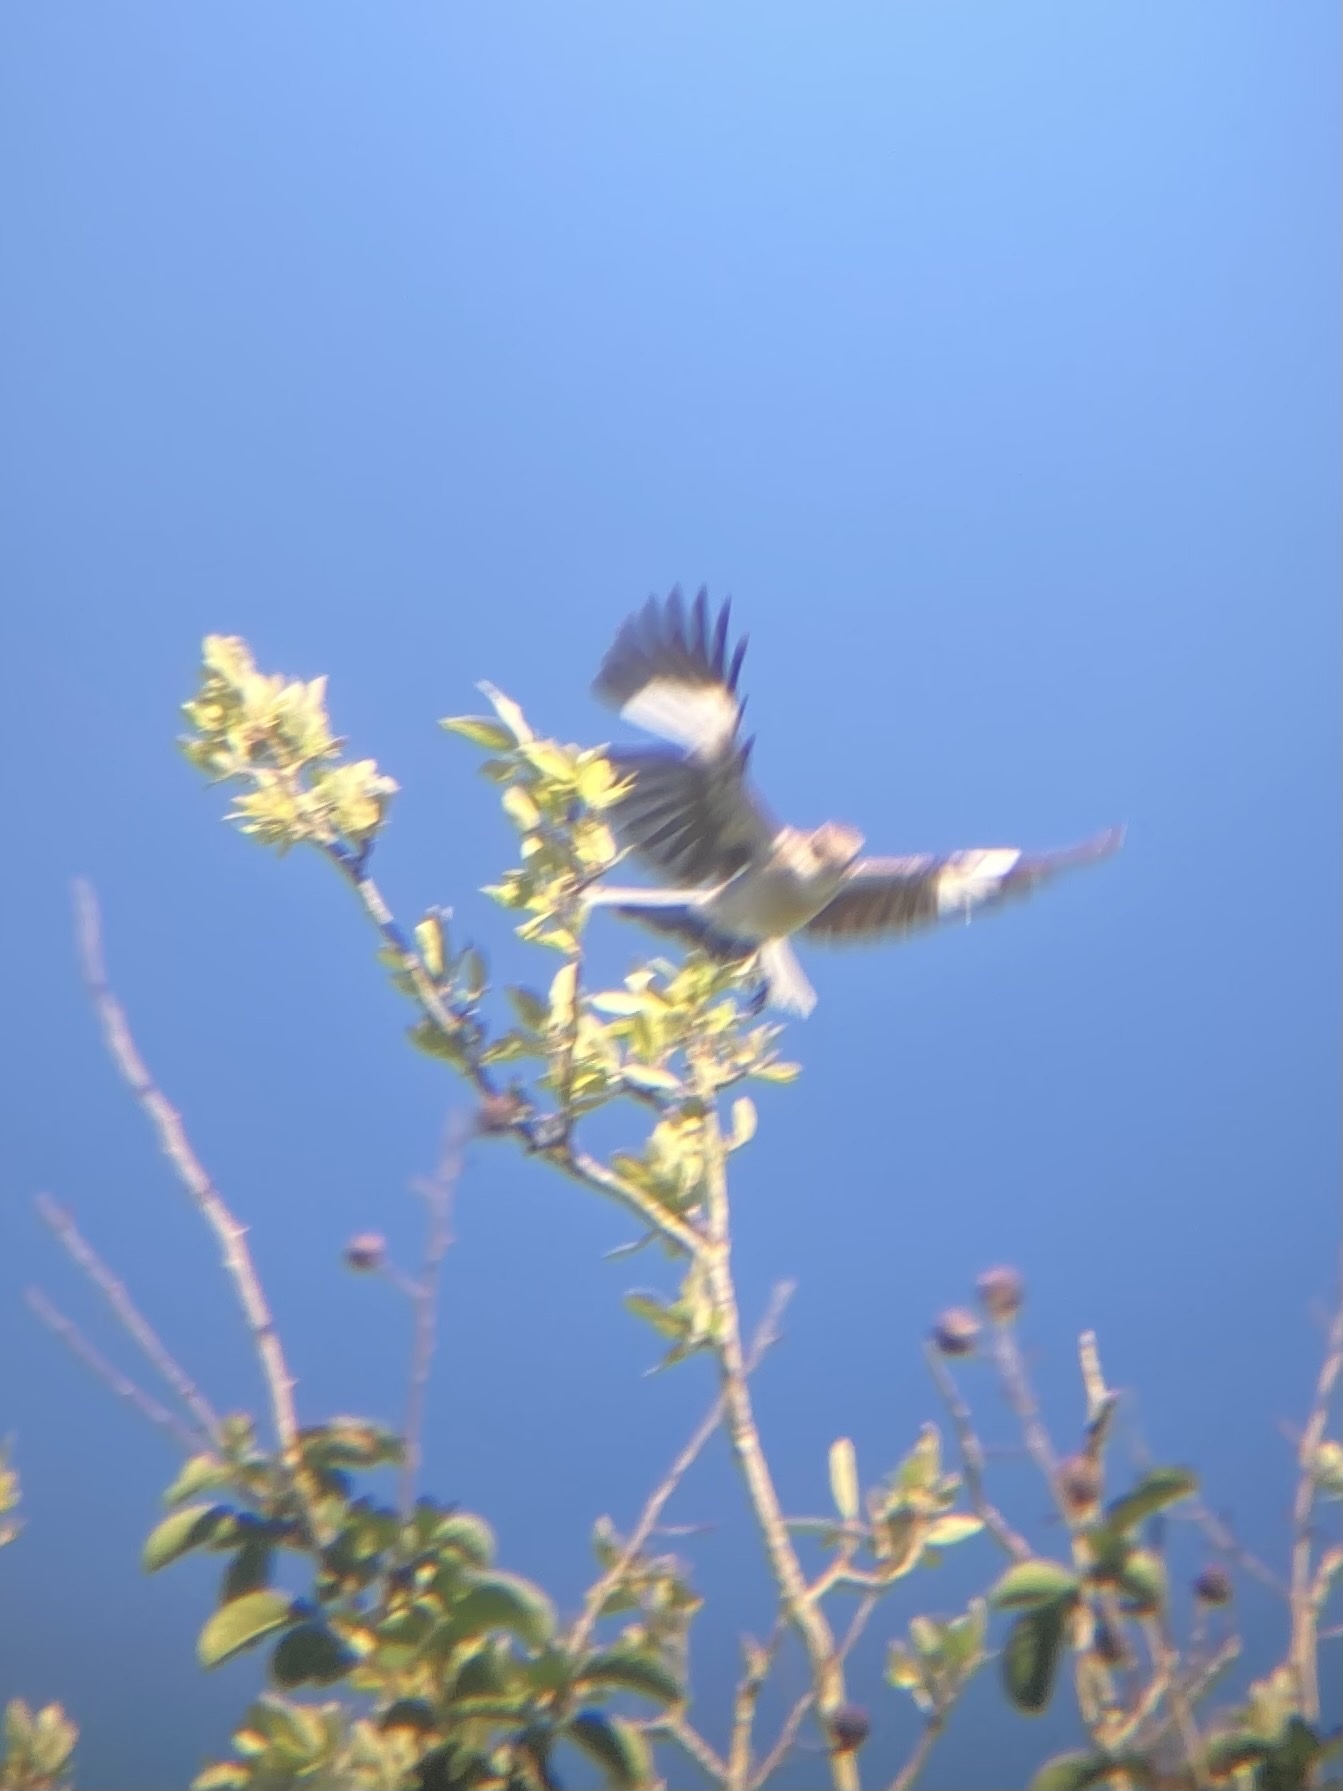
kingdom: Animalia
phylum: Chordata
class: Aves
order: Passeriformes
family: Mimidae
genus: Mimus
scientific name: Mimus polyglottos
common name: Northern mockingbird
